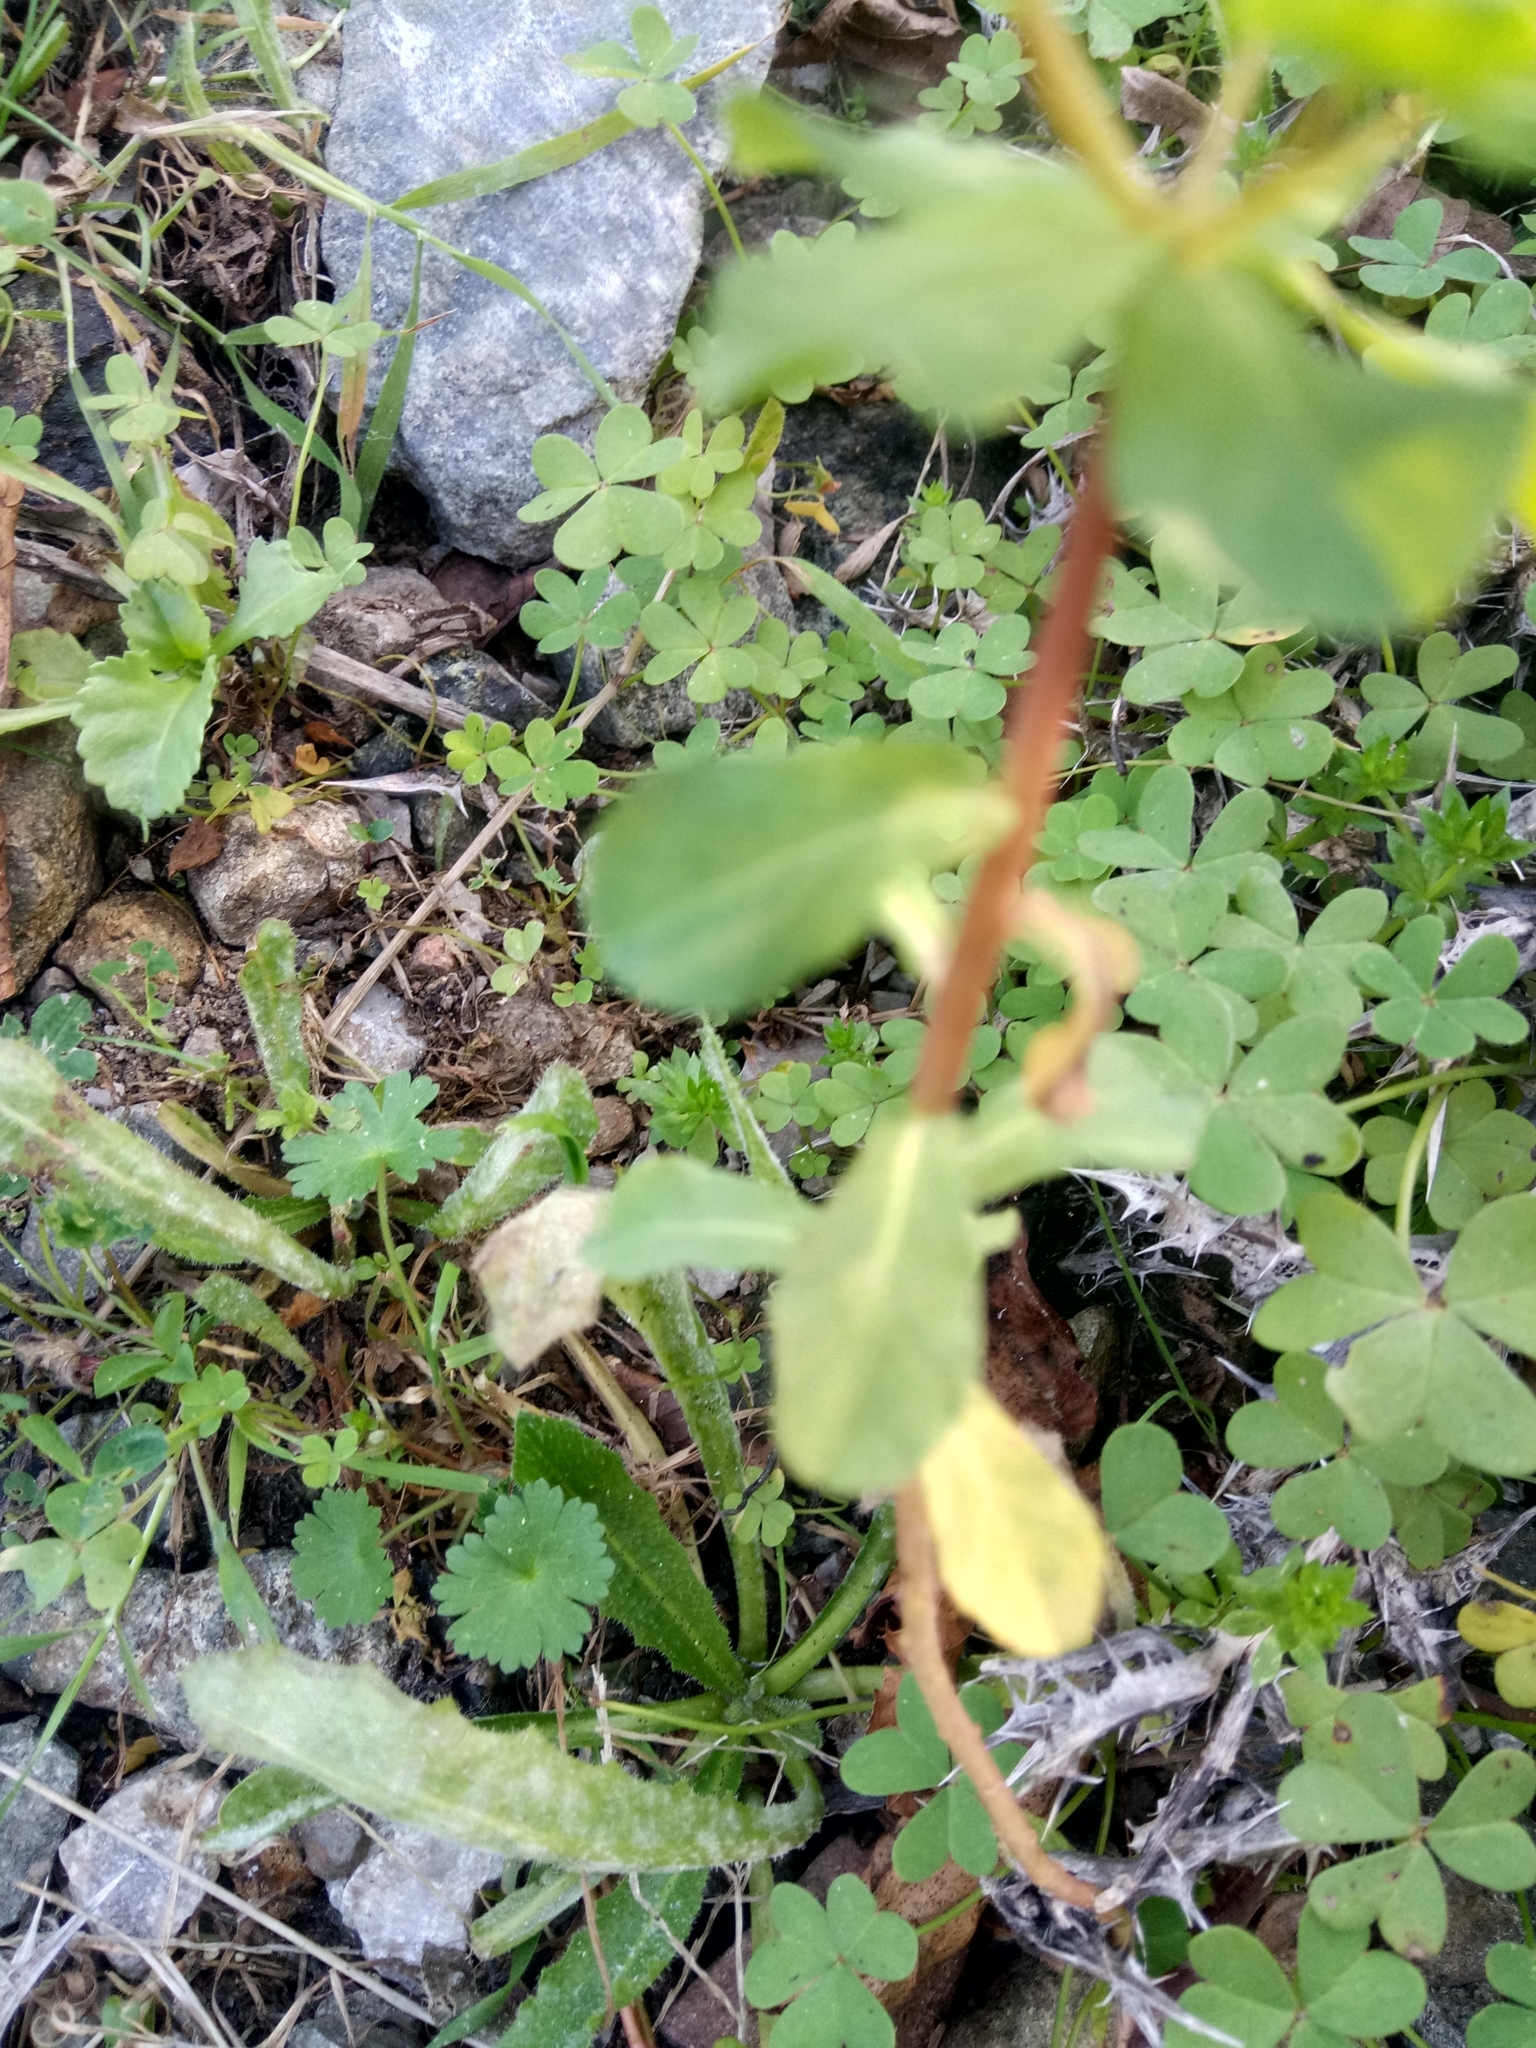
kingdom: Plantae
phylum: Tracheophyta
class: Magnoliopsida
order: Malpighiales
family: Euphorbiaceae
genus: Euphorbia
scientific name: Euphorbia helioscopia
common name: Sun spurge
